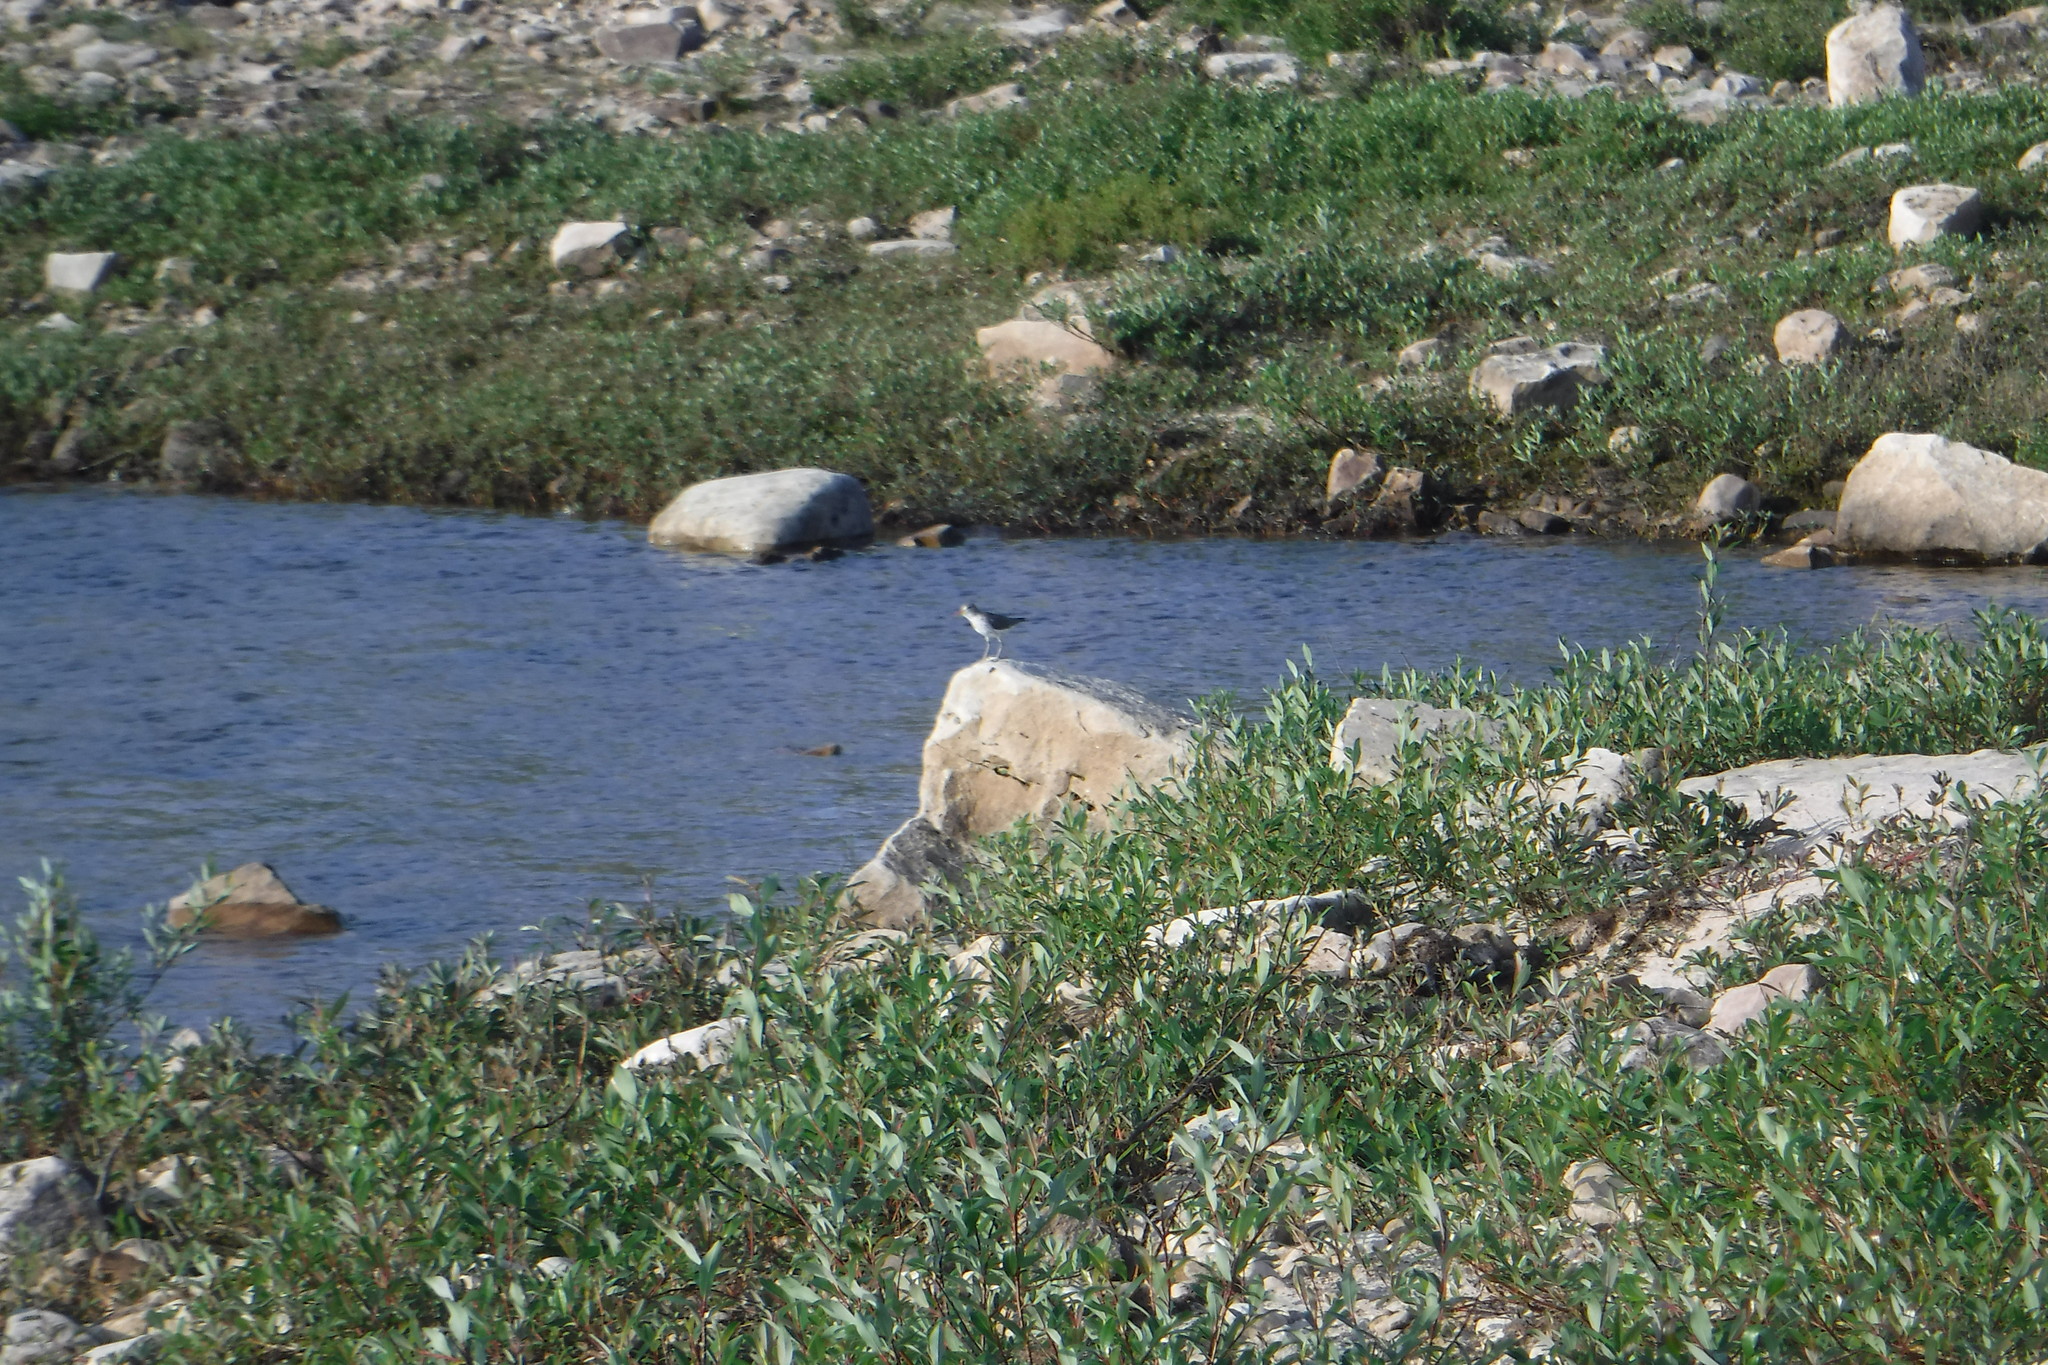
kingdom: Animalia
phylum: Chordata
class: Aves
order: Charadriiformes
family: Scolopacidae
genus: Actitis
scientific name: Actitis macularius
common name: Spotted sandpiper
